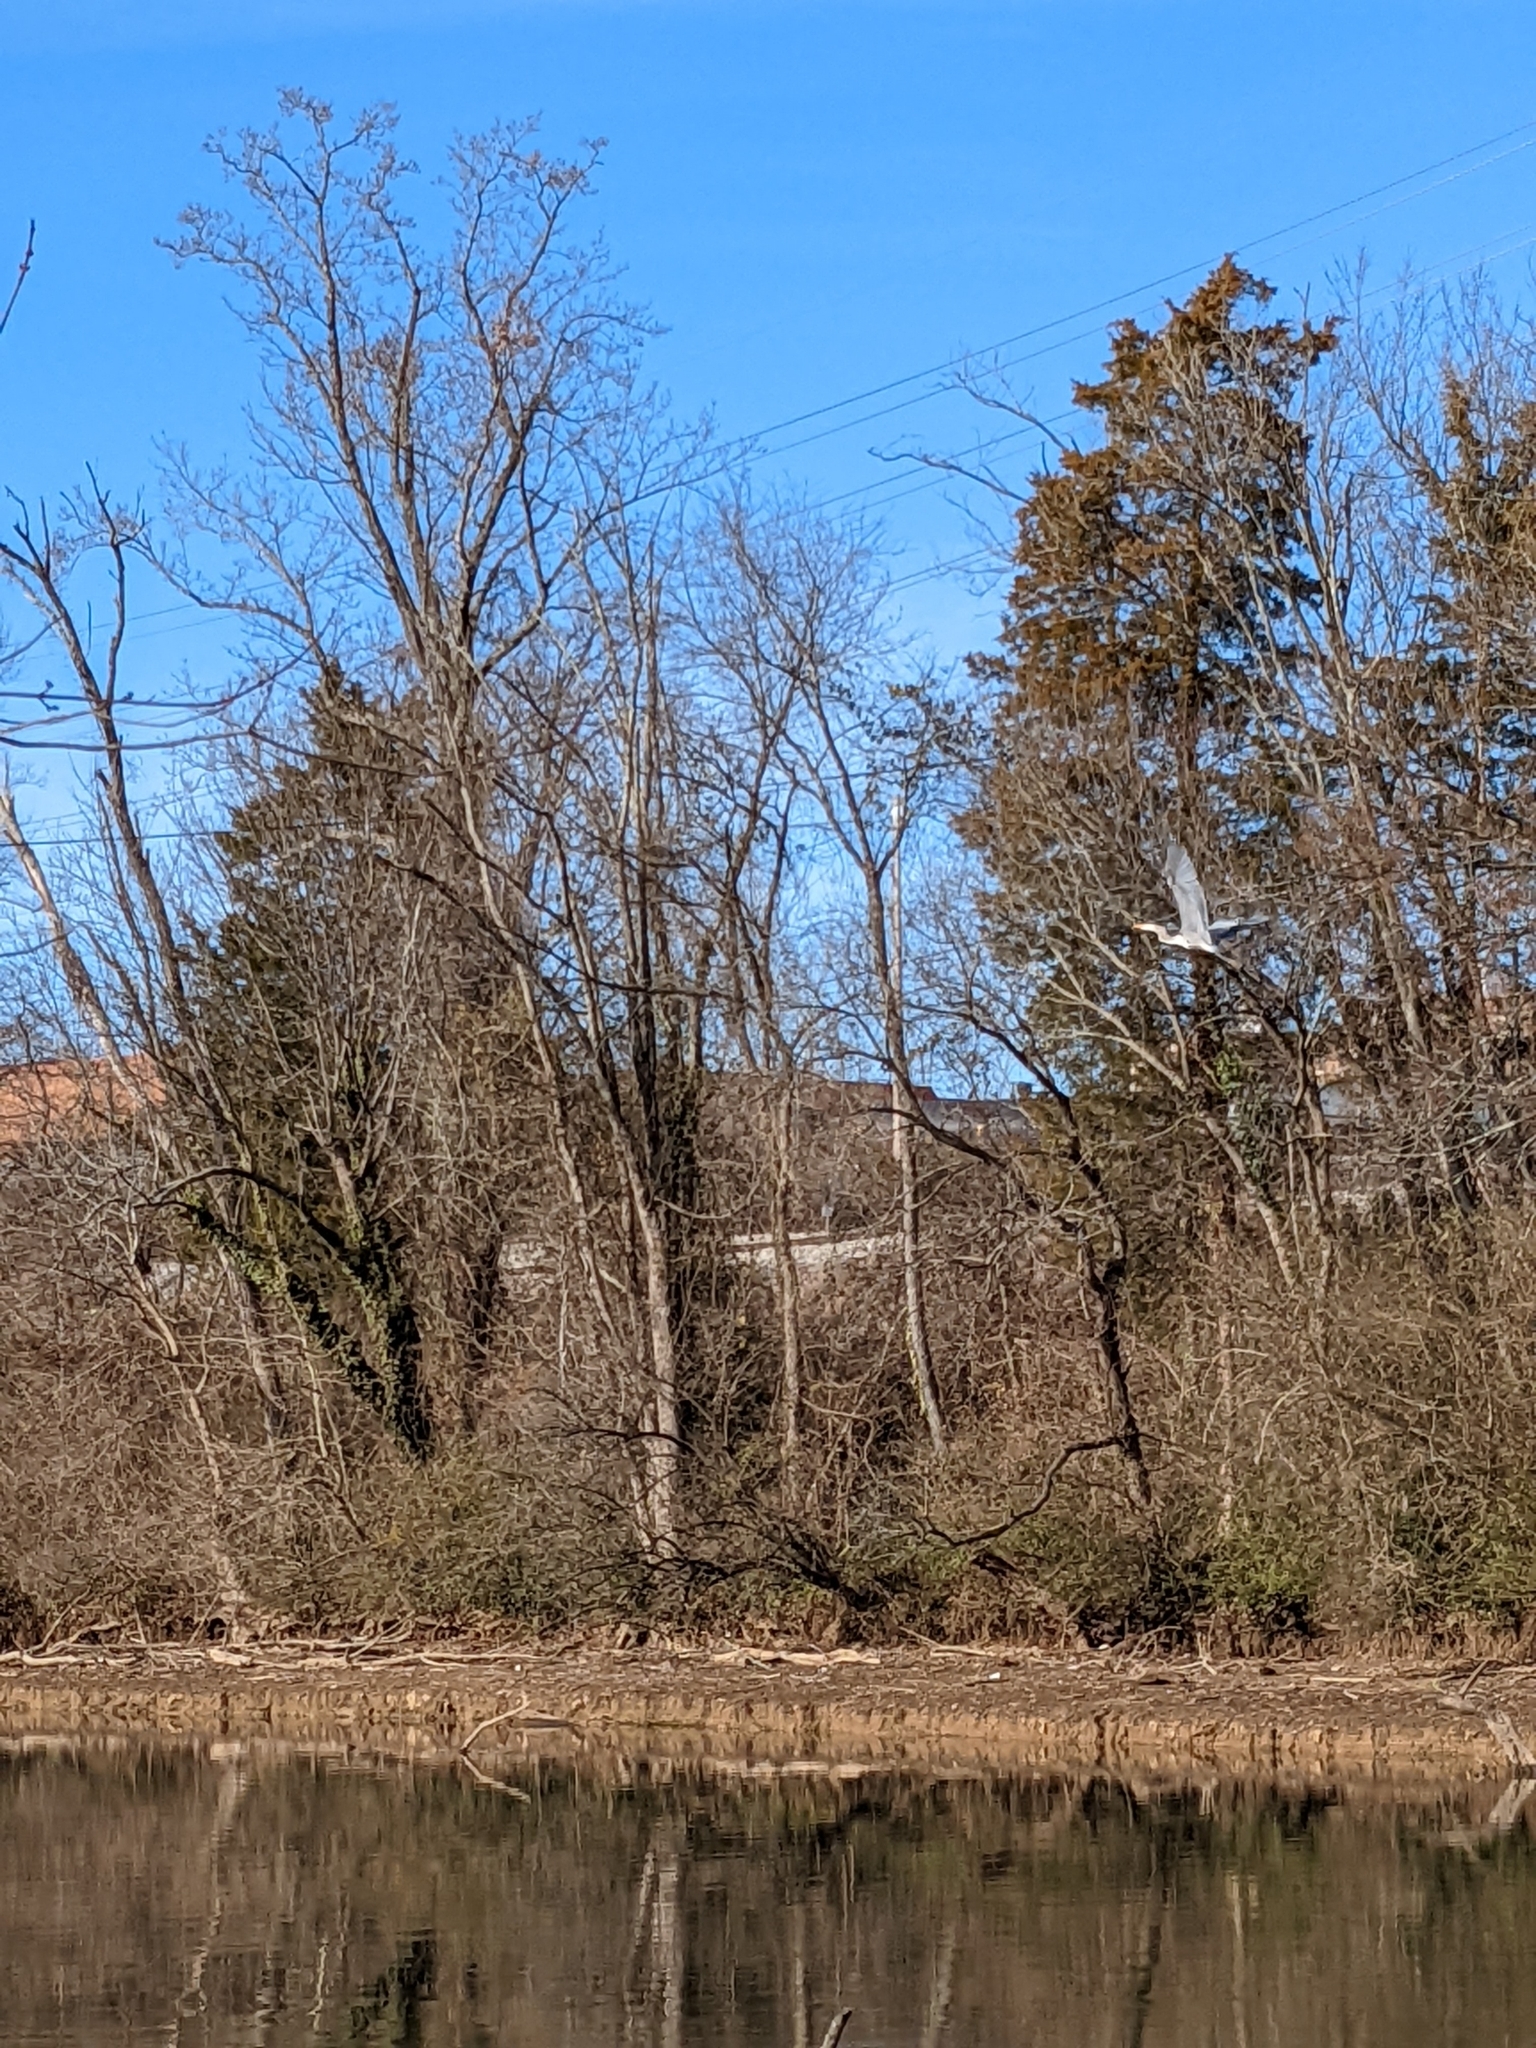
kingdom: Animalia
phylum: Chordata
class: Aves
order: Pelecaniformes
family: Ardeidae
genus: Ardea
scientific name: Ardea herodias
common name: Great blue heron
